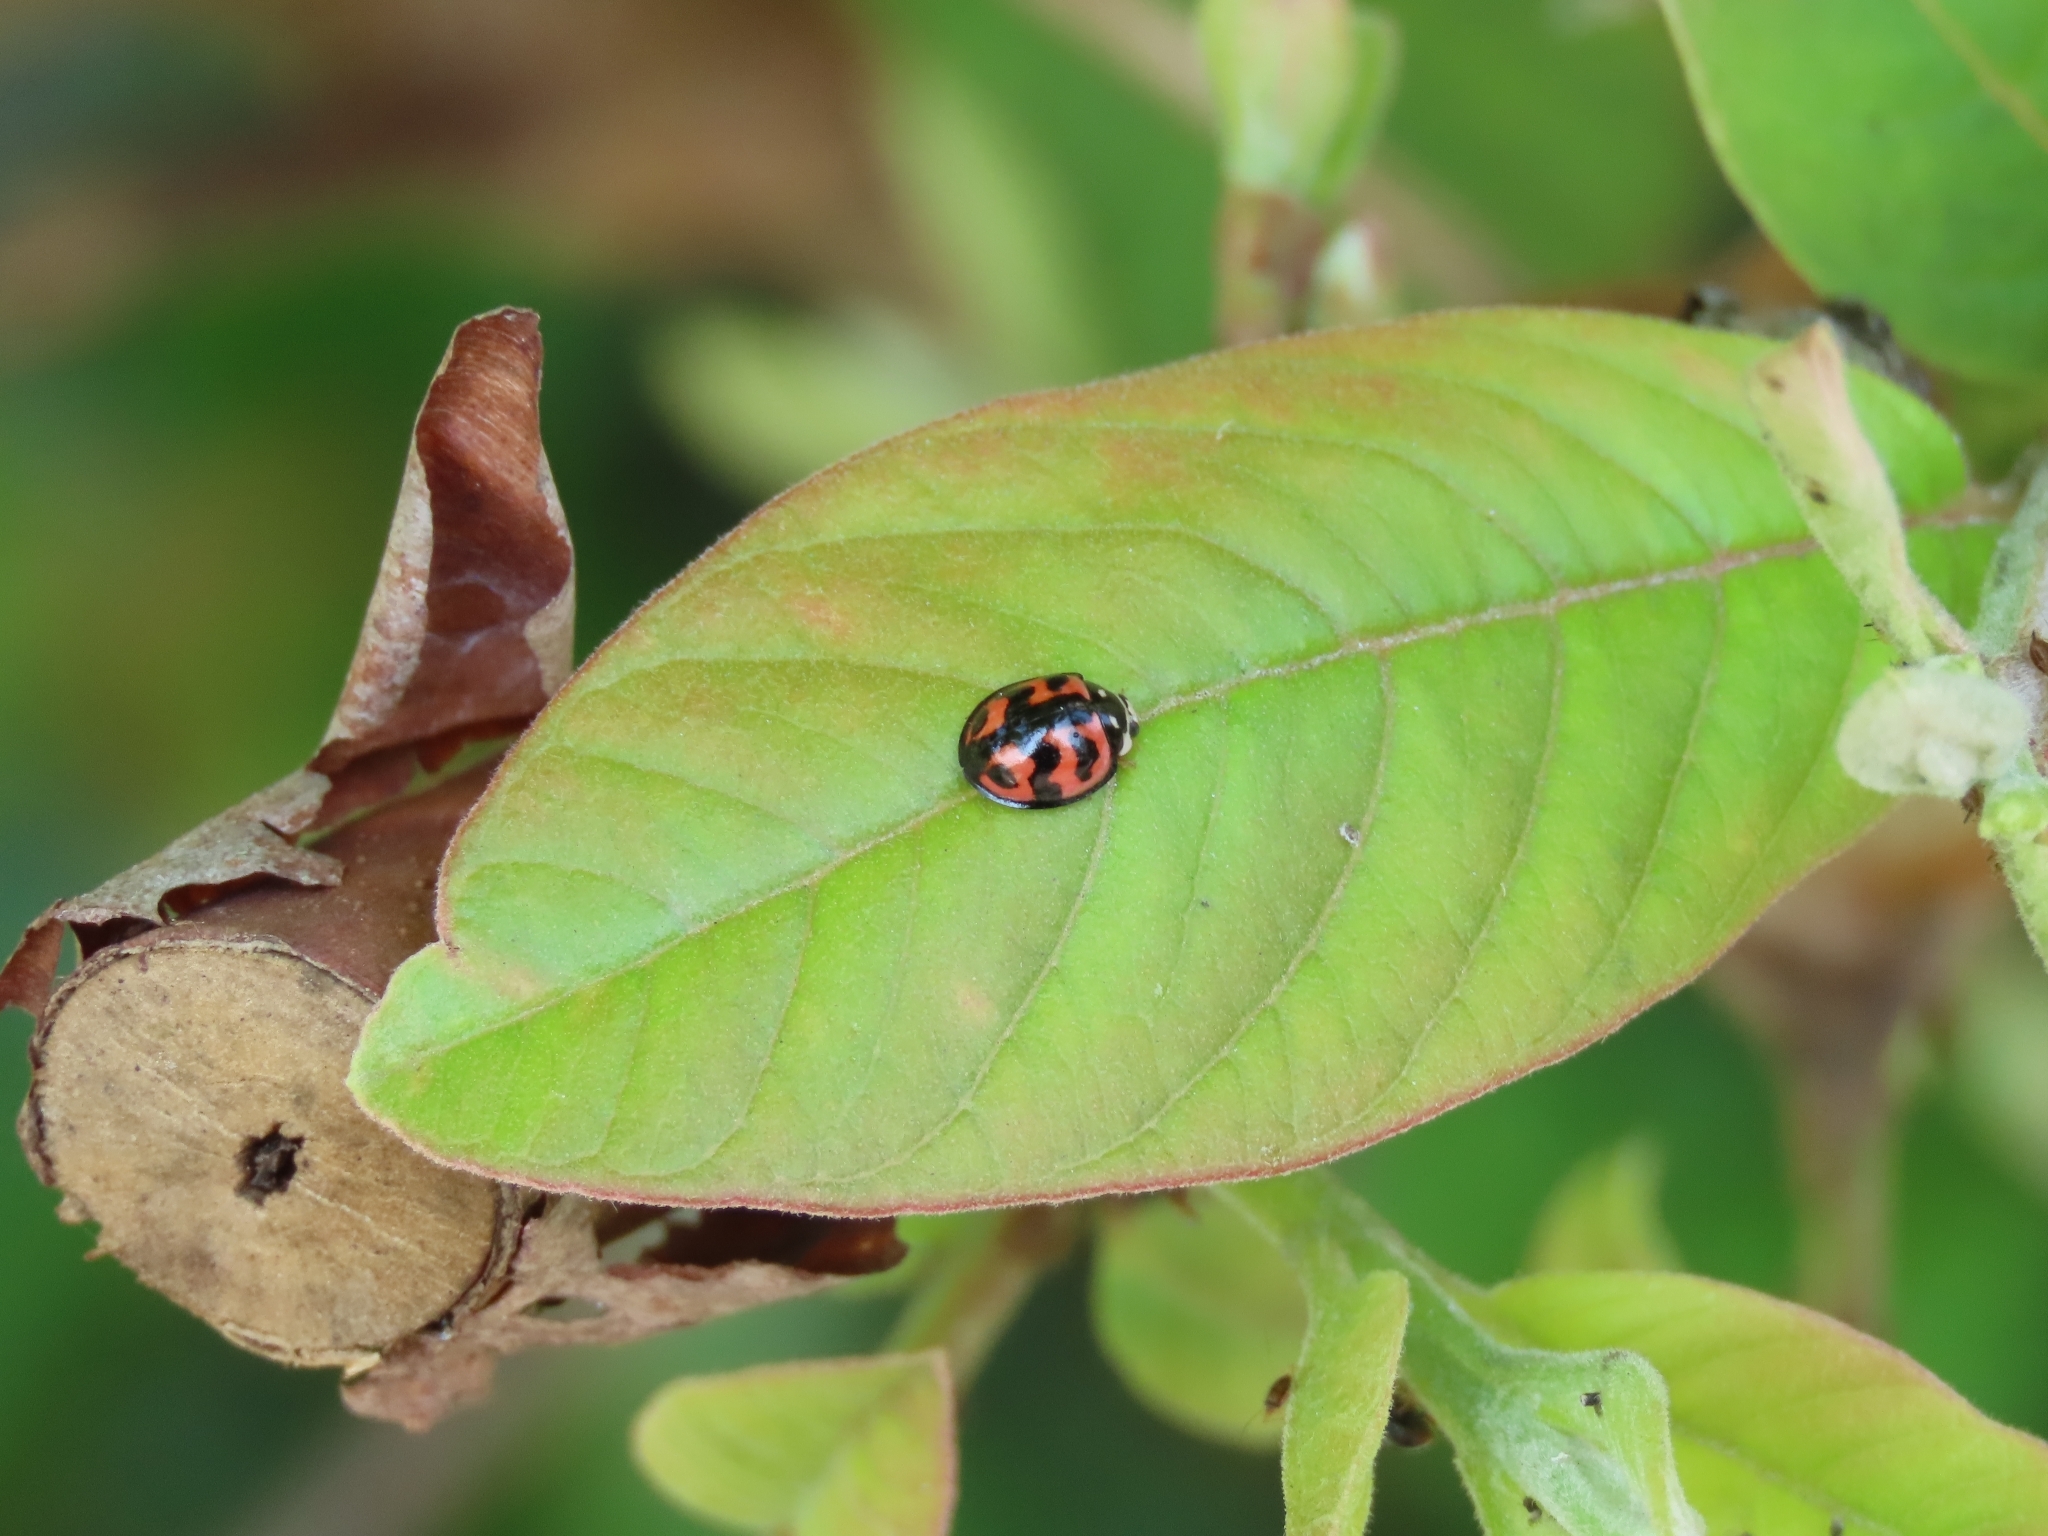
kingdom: Animalia
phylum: Arthropoda
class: Insecta
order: Coleoptera
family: Coccinellidae
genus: Cheilomenes
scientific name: Cheilomenes sexmaculata
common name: Ladybird beetle
